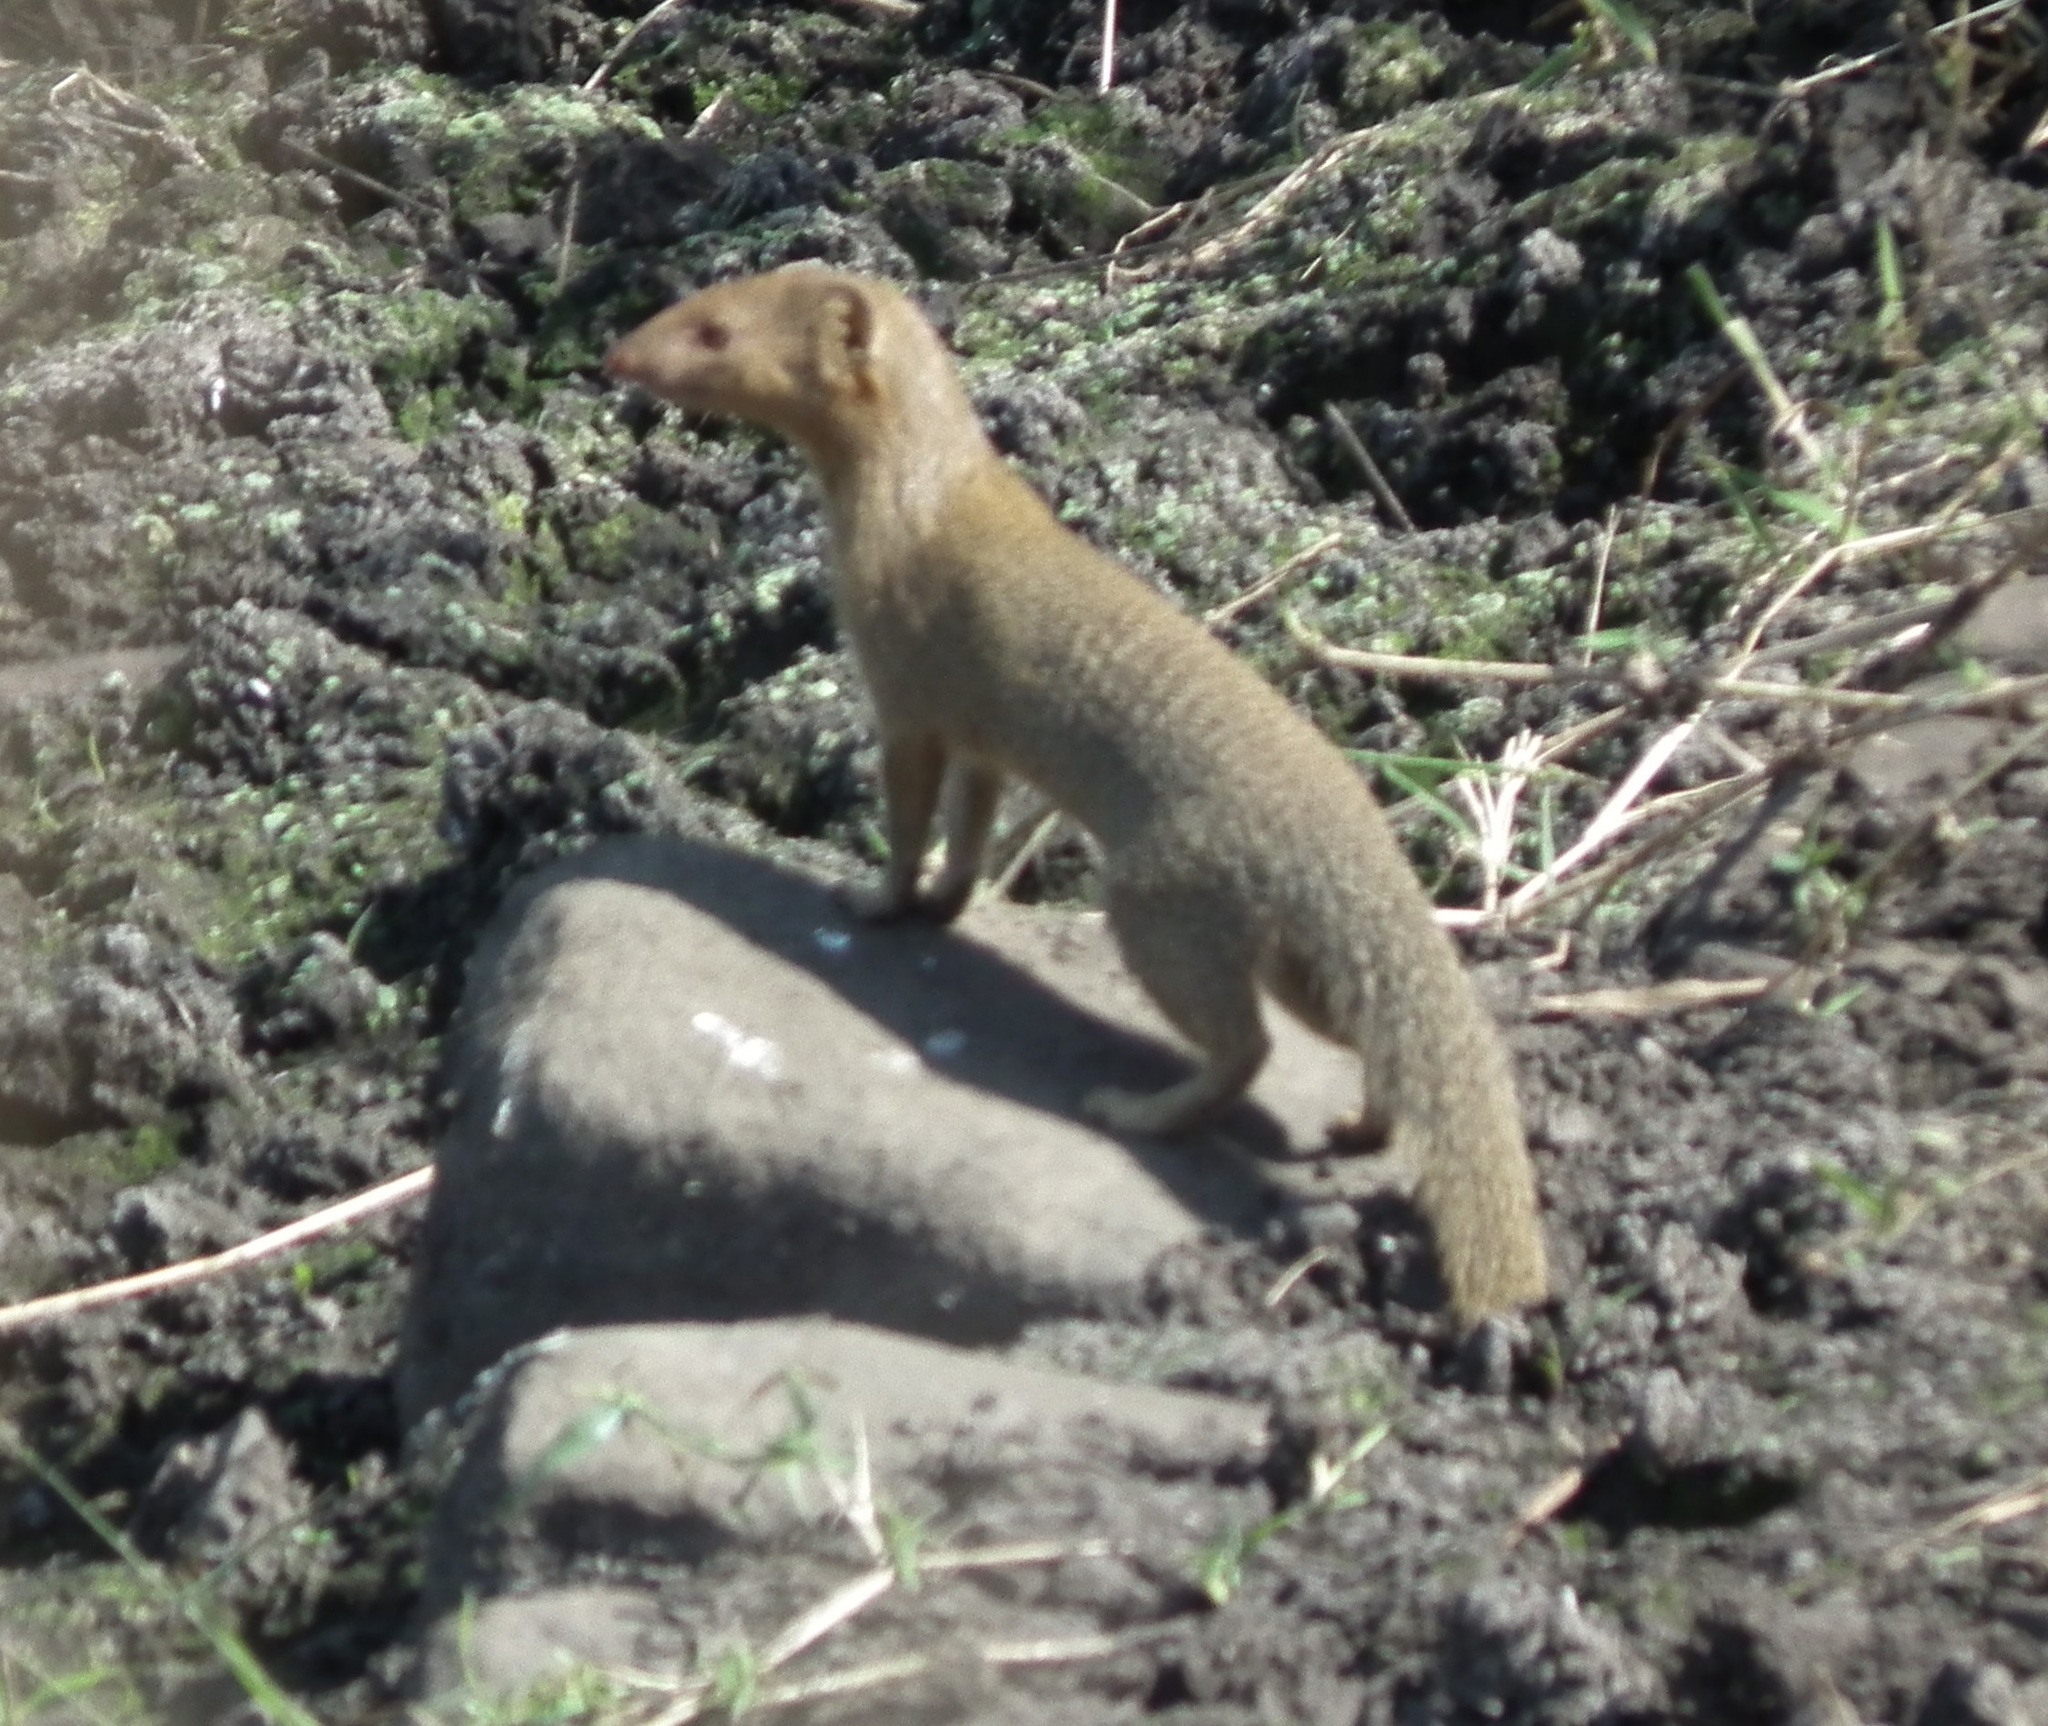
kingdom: Animalia
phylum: Chordata
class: Mammalia
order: Carnivora
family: Herpestidae
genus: Galerella
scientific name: Galerella sanguinea
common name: Slender mongoose
